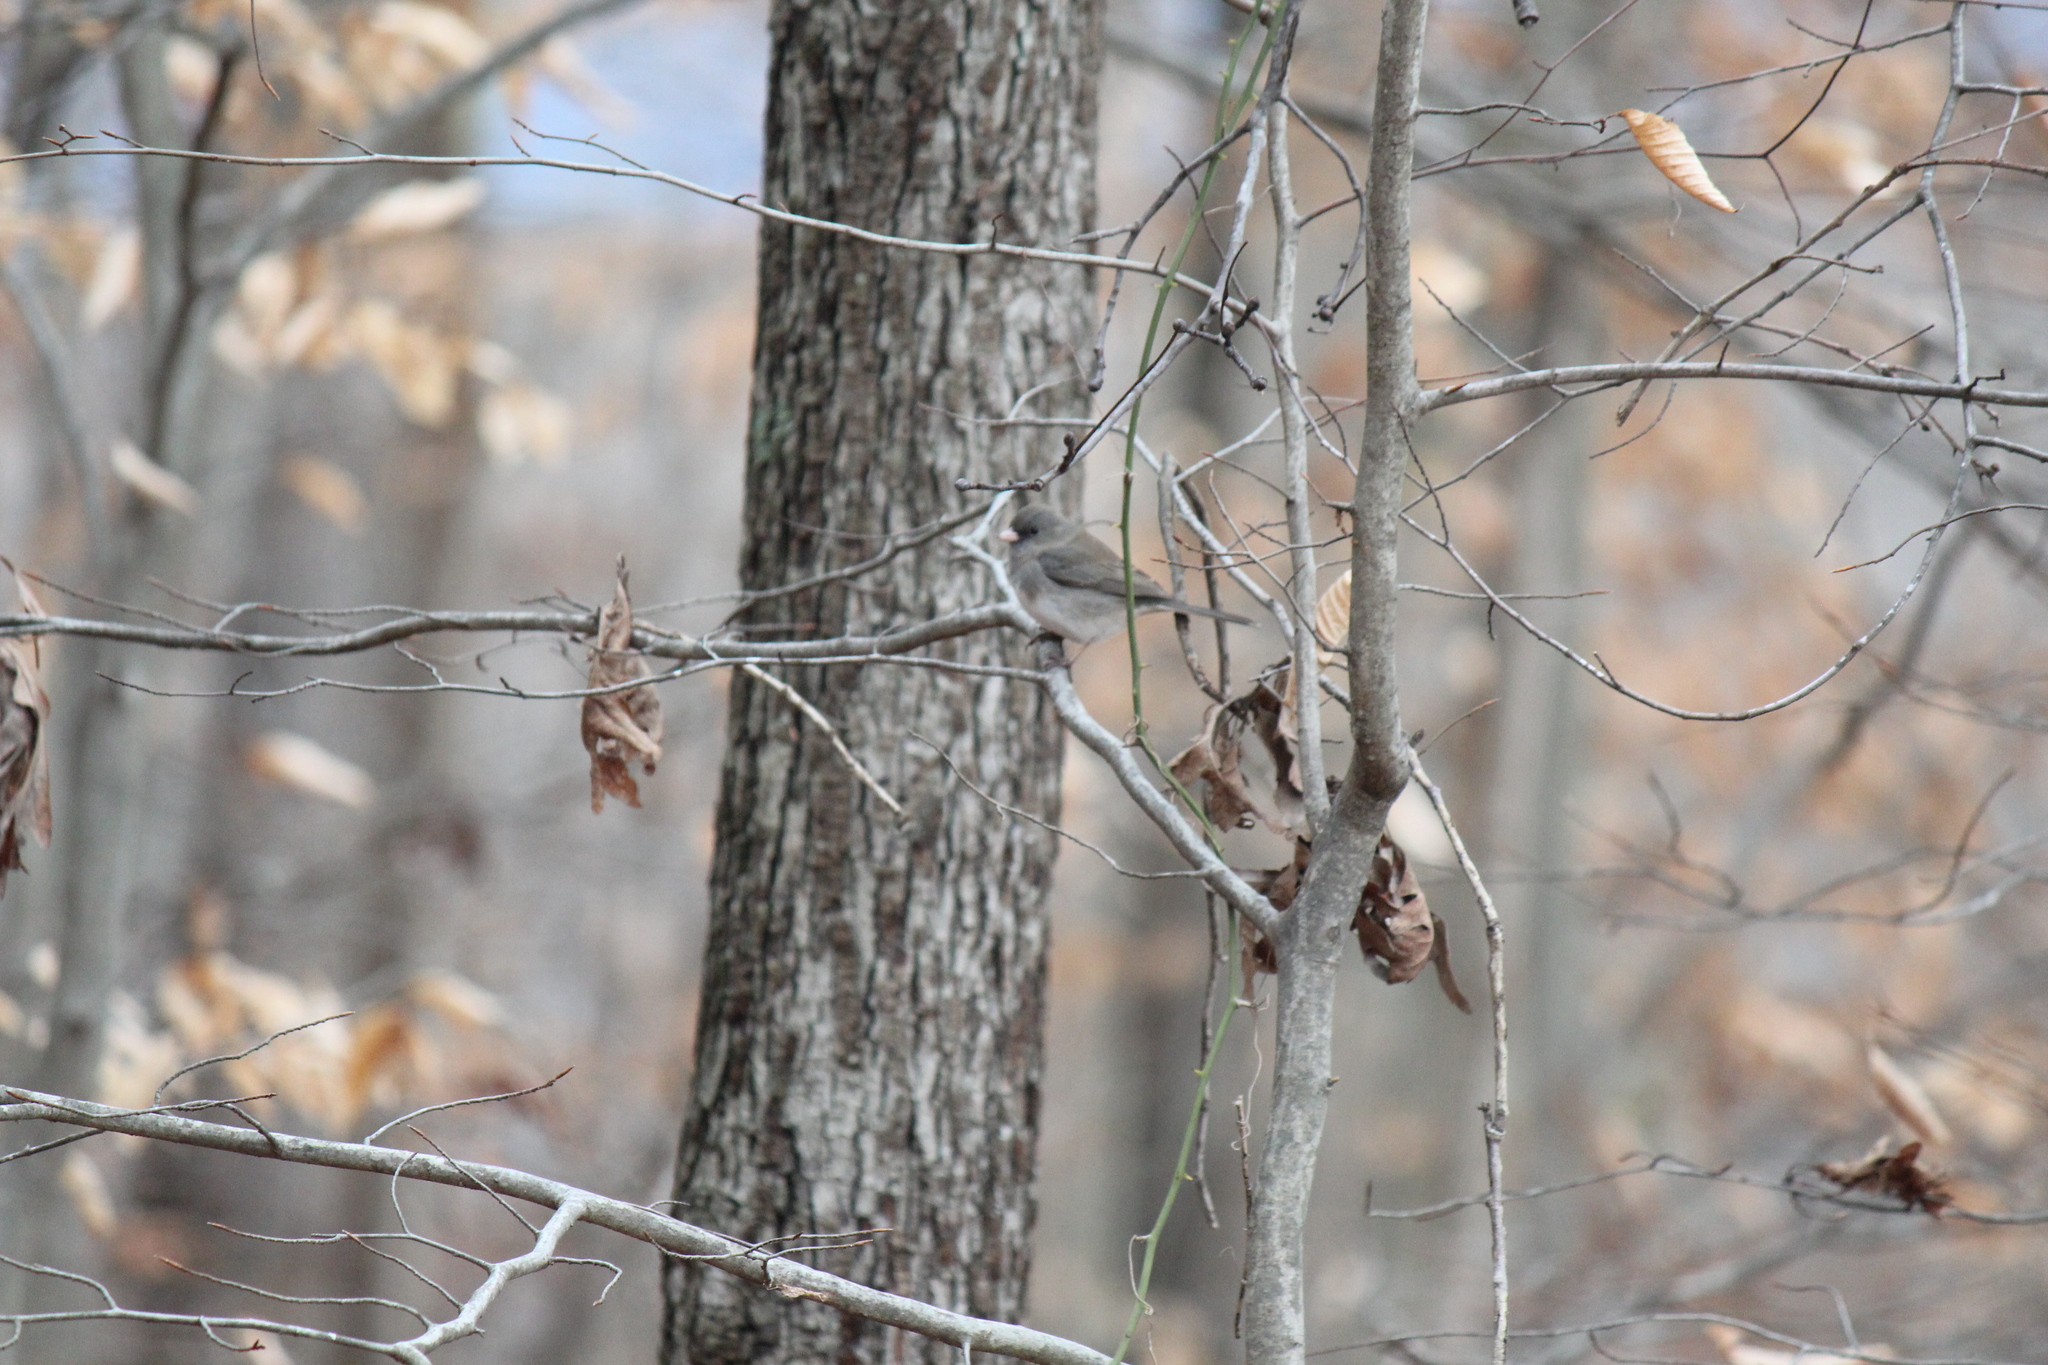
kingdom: Animalia
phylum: Chordata
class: Aves
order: Passeriformes
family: Passerellidae
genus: Junco
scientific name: Junco hyemalis
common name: Dark-eyed junco
